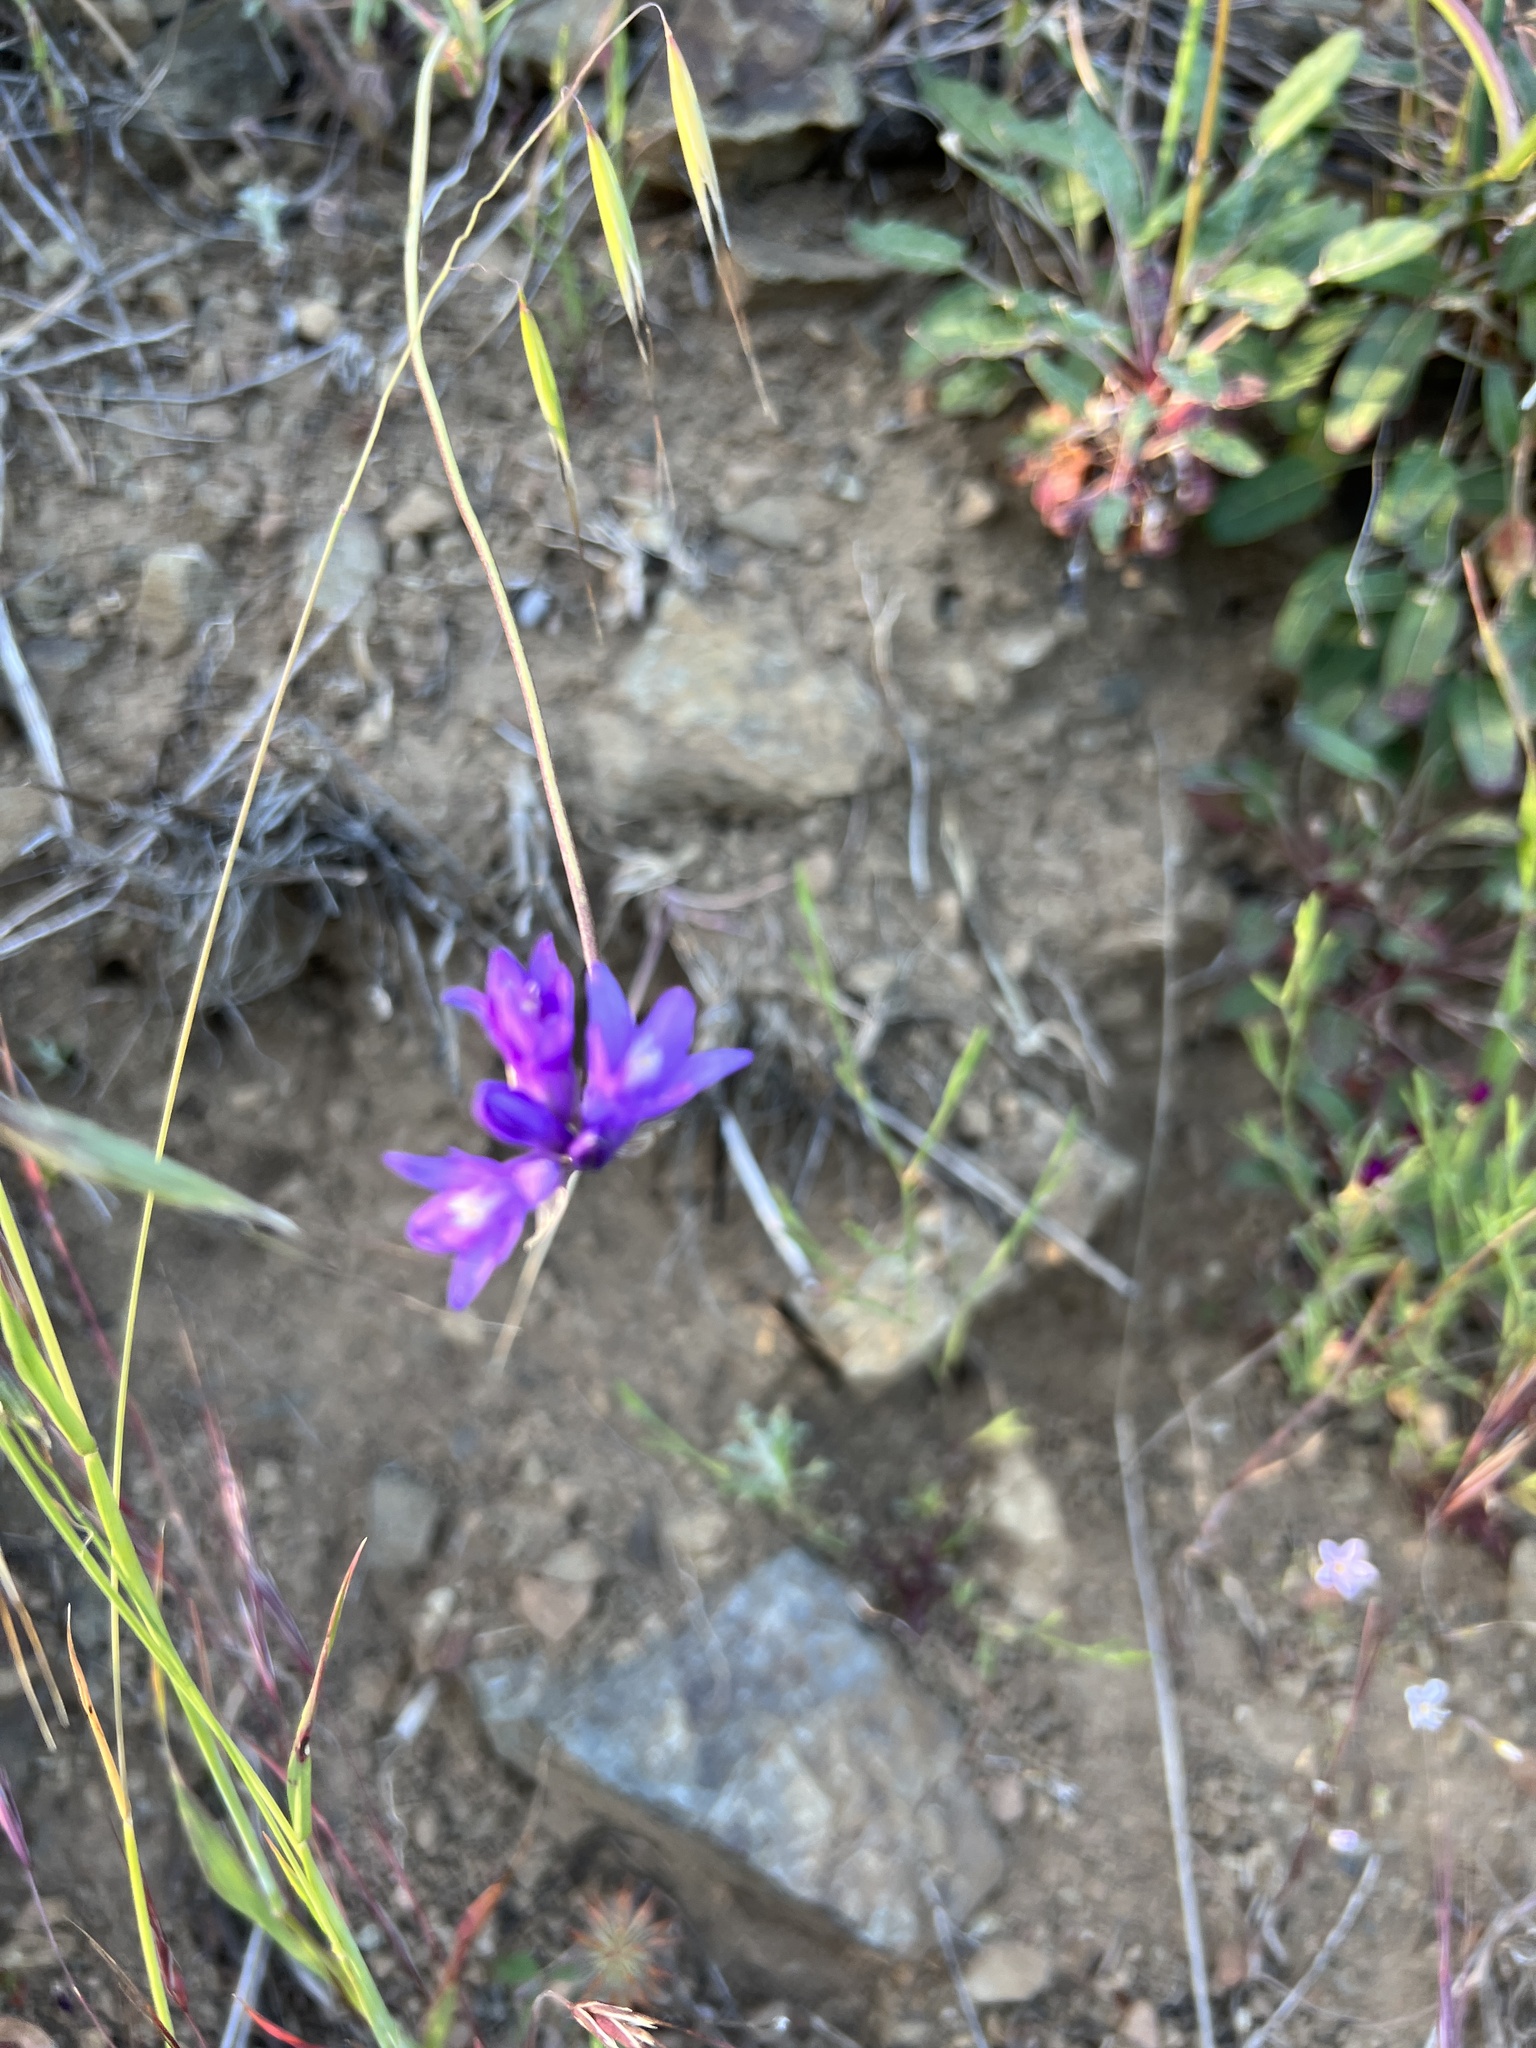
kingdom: Plantae
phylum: Tracheophyta
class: Liliopsida
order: Asparagales
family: Asparagaceae
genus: Dipterostemon
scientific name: Dipterostemon capitatus
